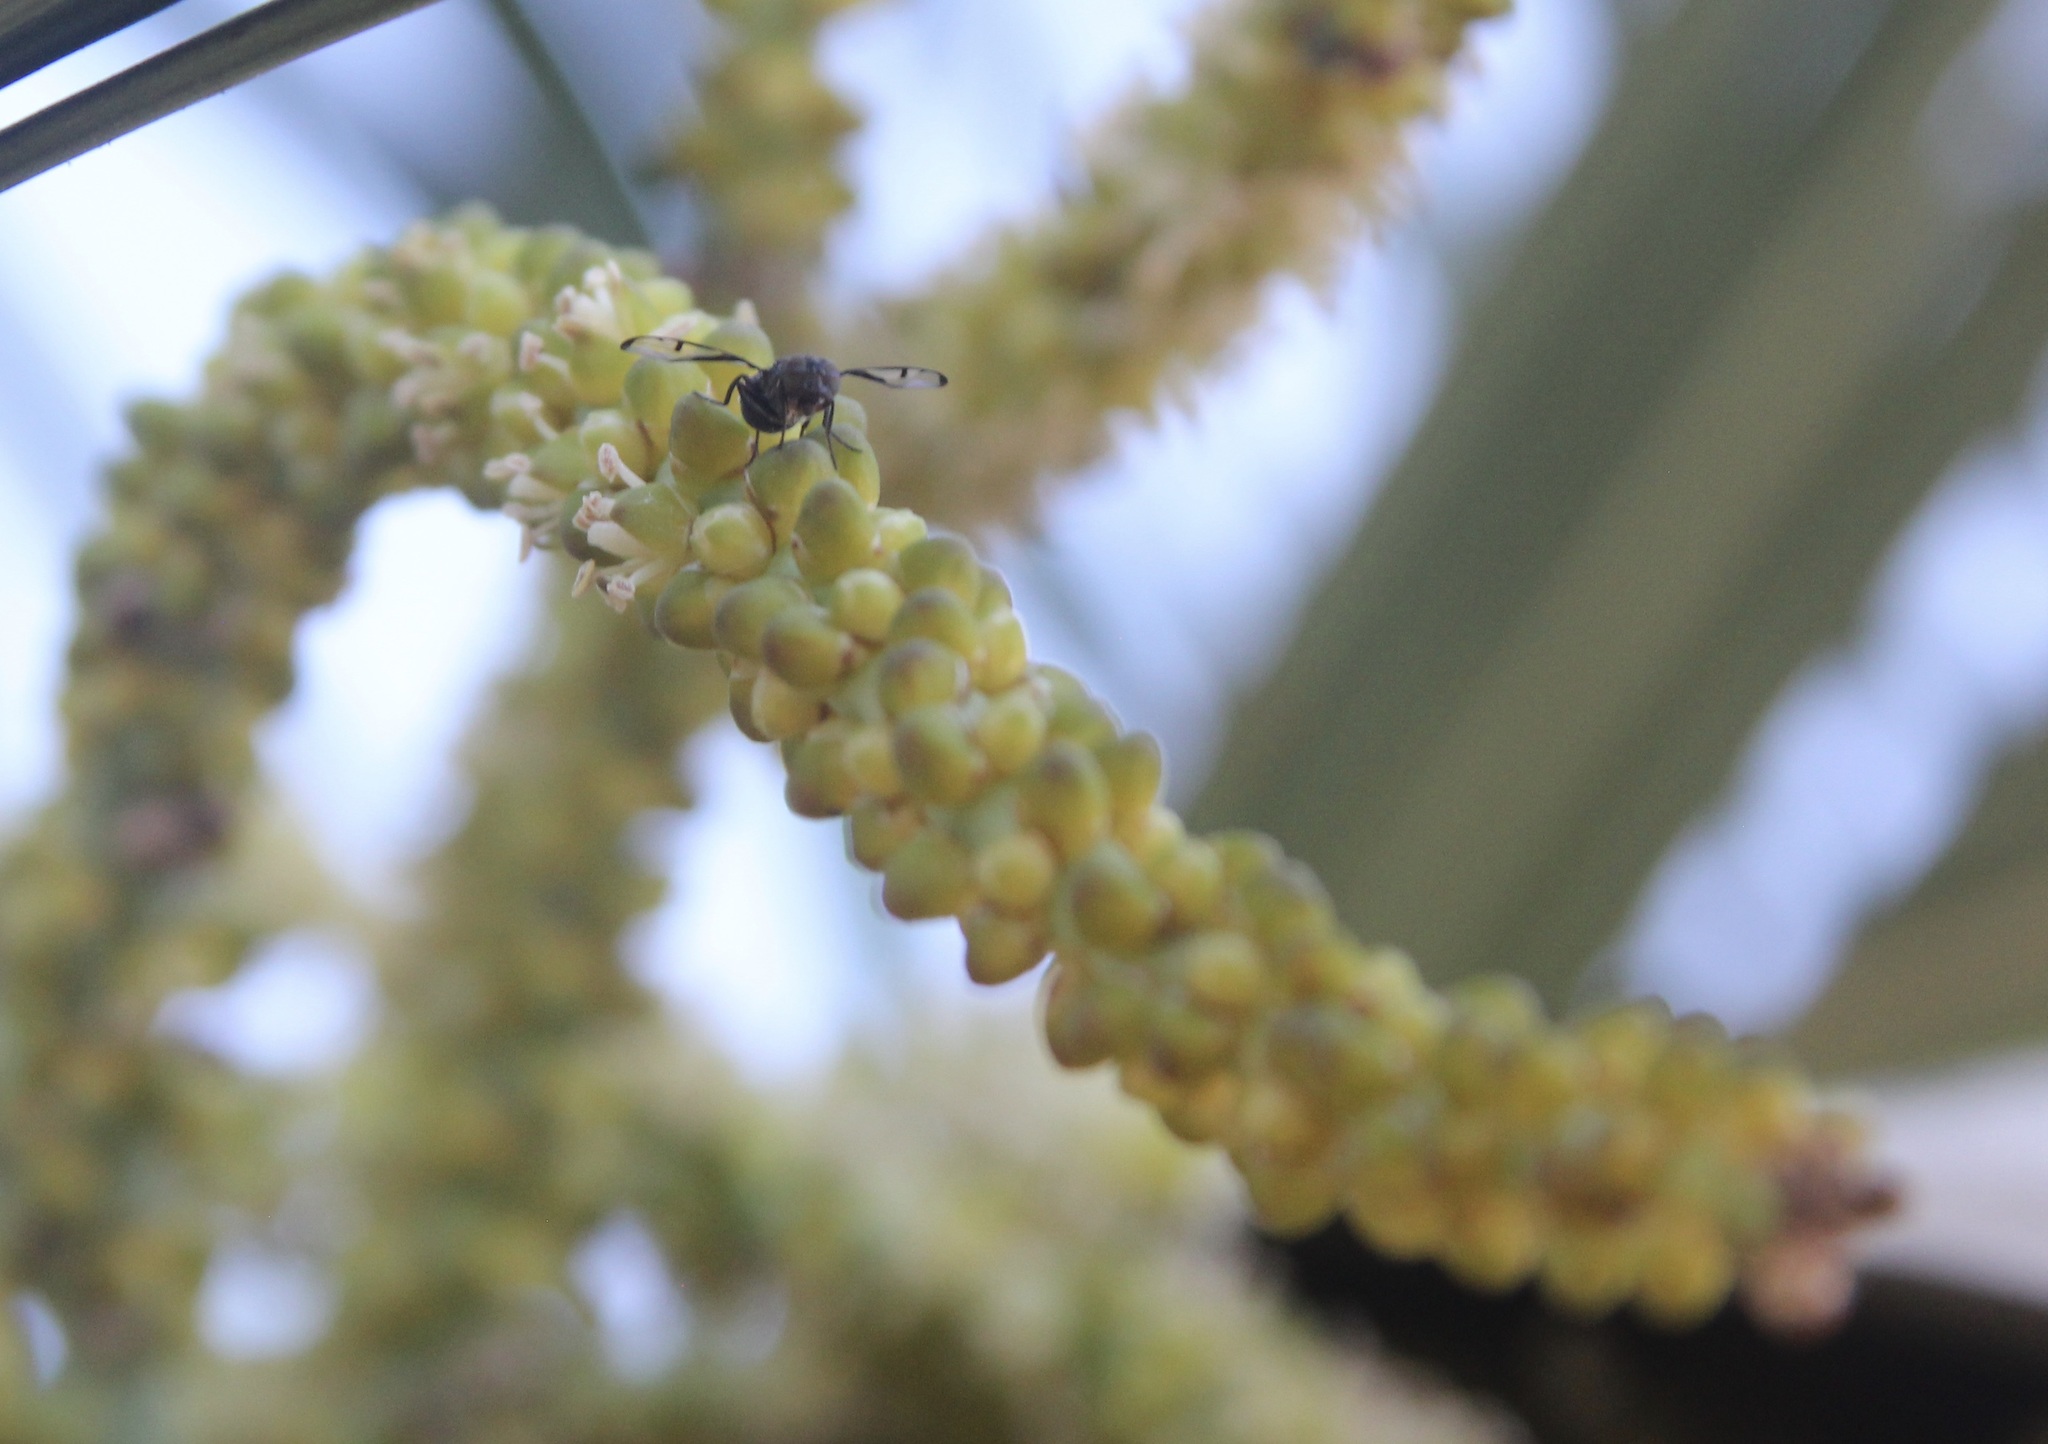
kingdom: Animalia
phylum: Arthropoda
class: Insecta
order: Diptera
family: Platystomatidae
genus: Pogonortalis
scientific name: Pogonortalis doclea
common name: Boatman fly
